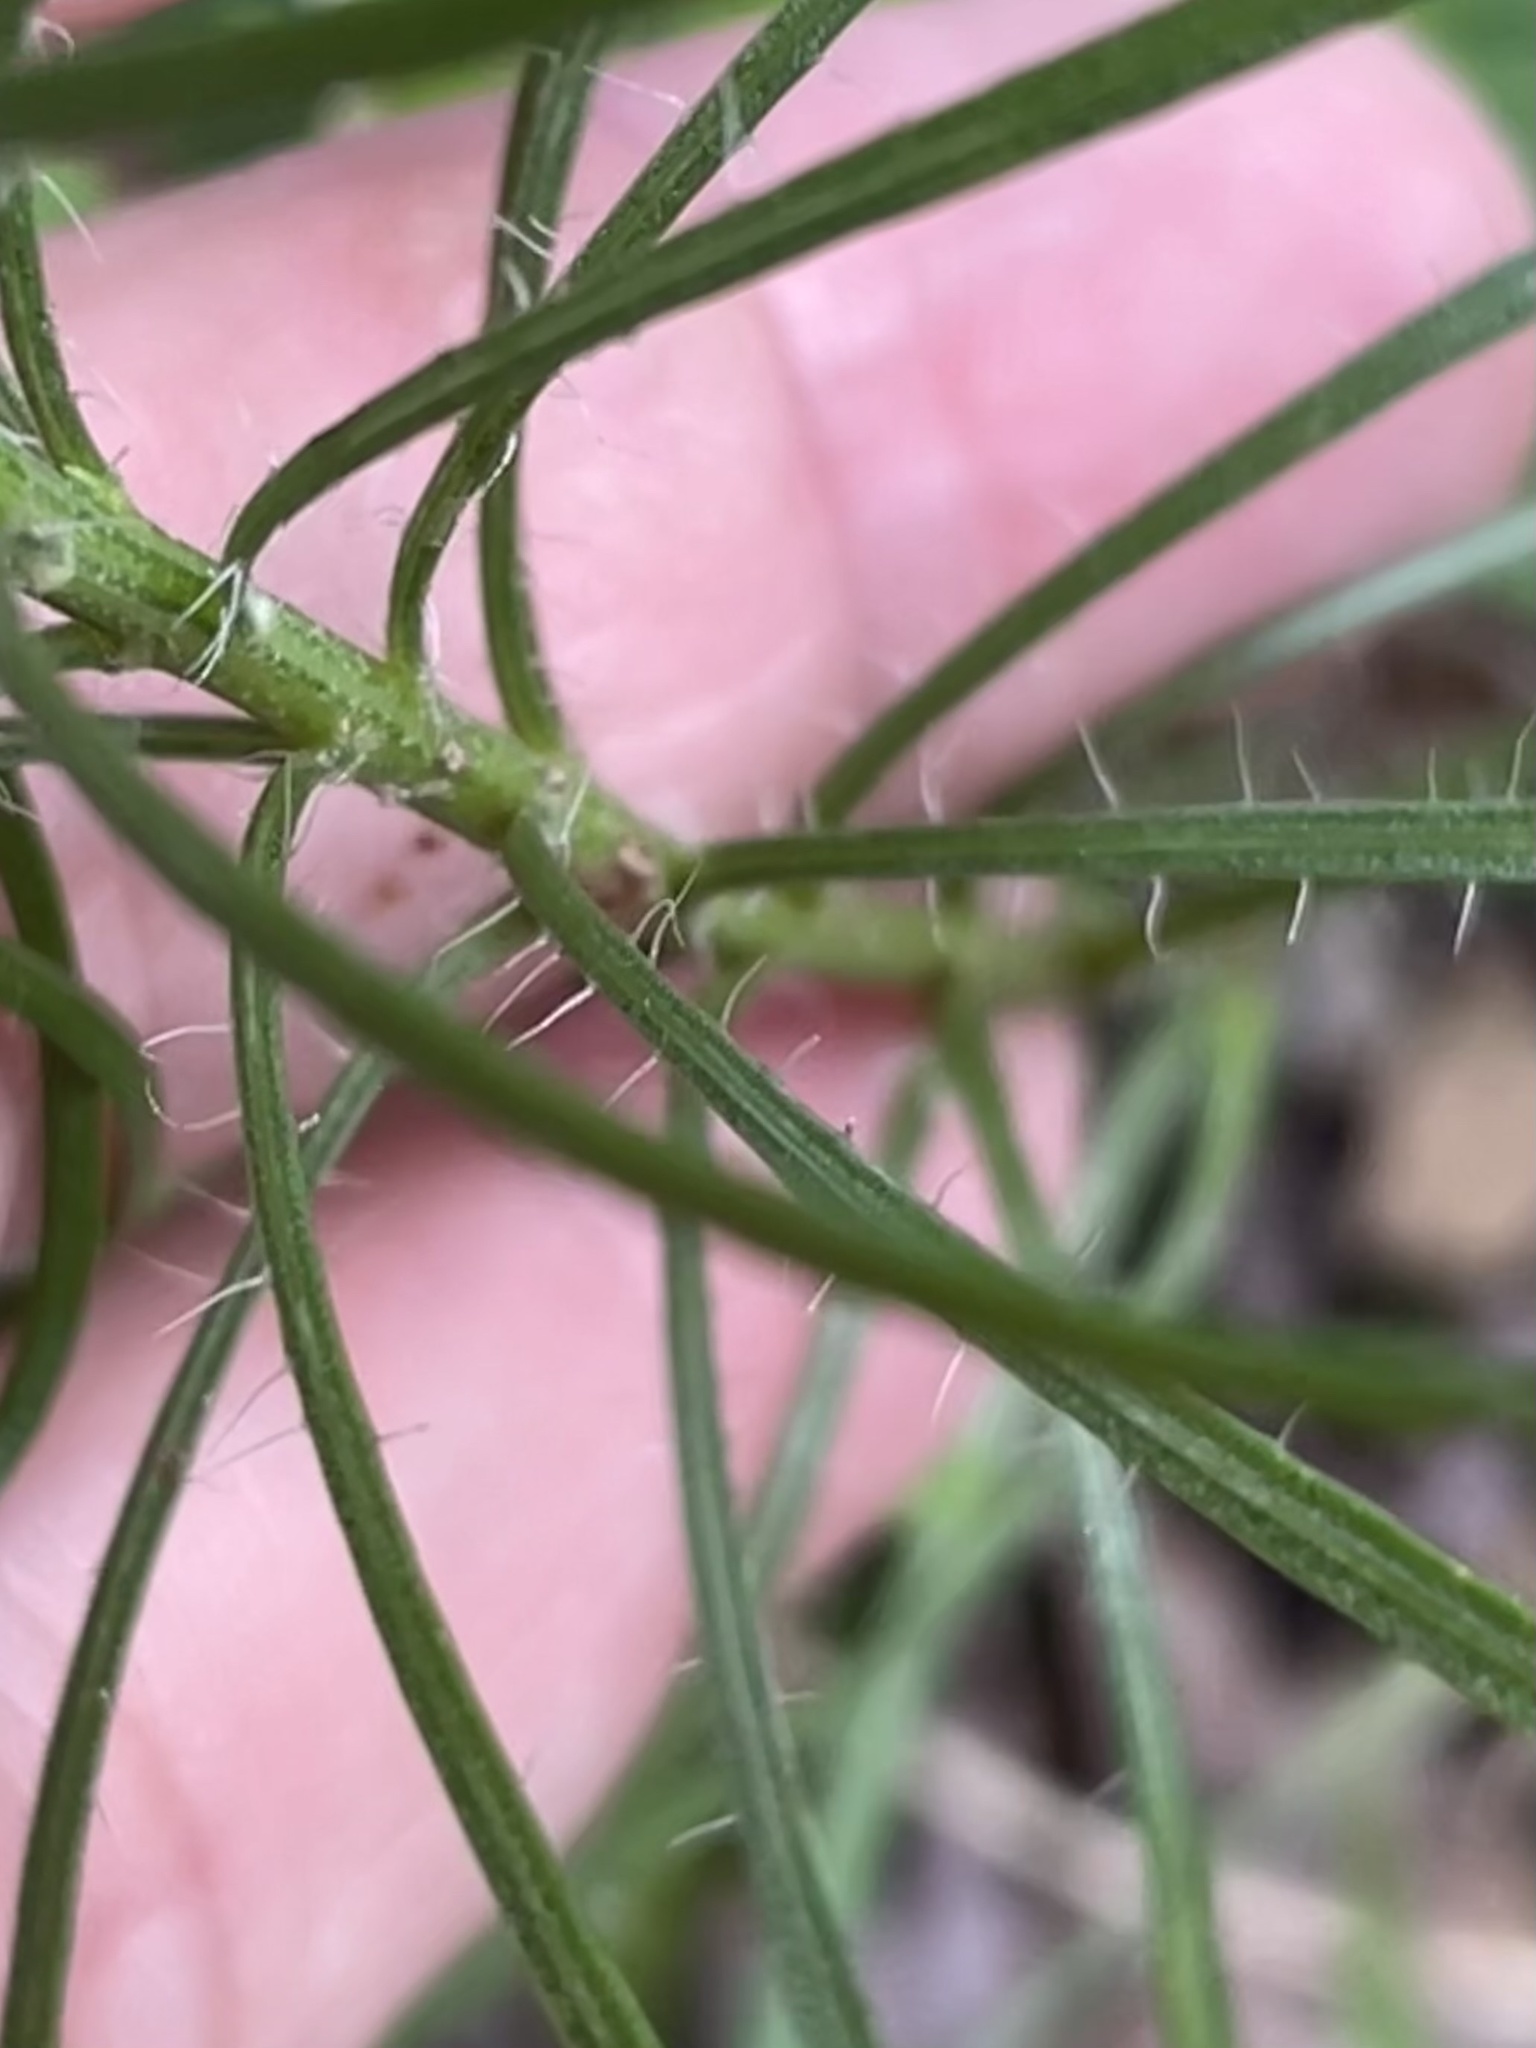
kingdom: Plantae
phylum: Tracheophyta
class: Magnoliopsida
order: Asterales
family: Asteraceae
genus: Liatris
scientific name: Liatris pilosa
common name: Grass-leaf gayfeather
